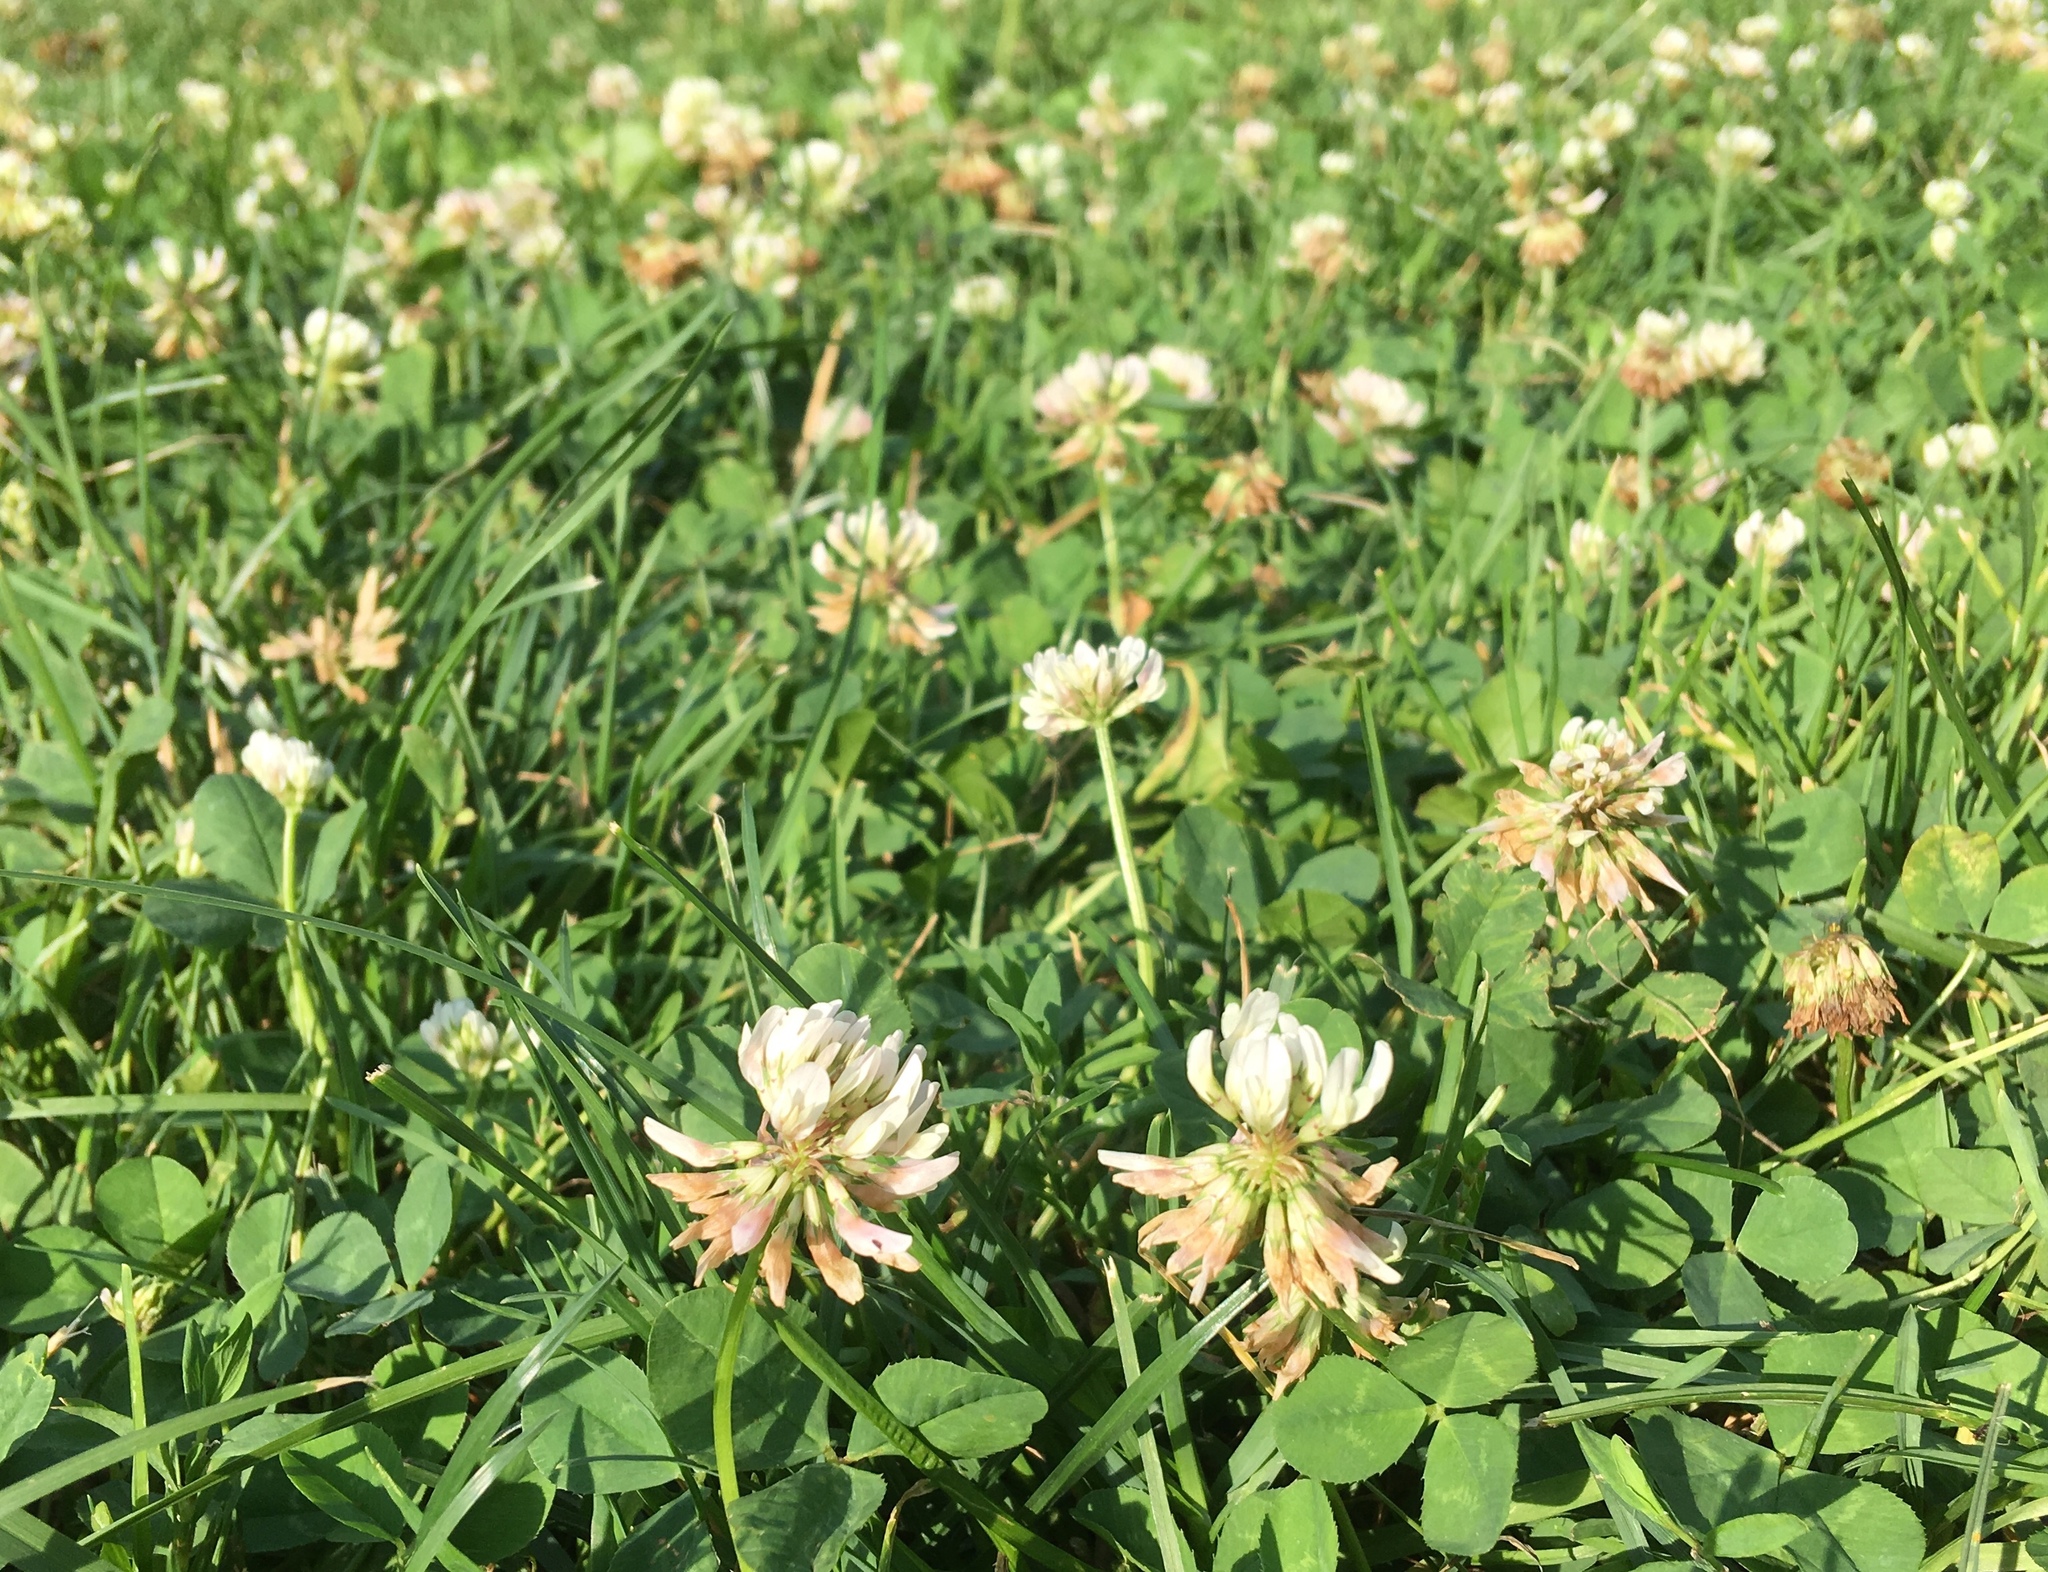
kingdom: Plantae
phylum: Tracheophyta
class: Magnoliopsida
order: Fabales
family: Fabaceae
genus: Trifolium
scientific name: Trifolium repens
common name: White clover
